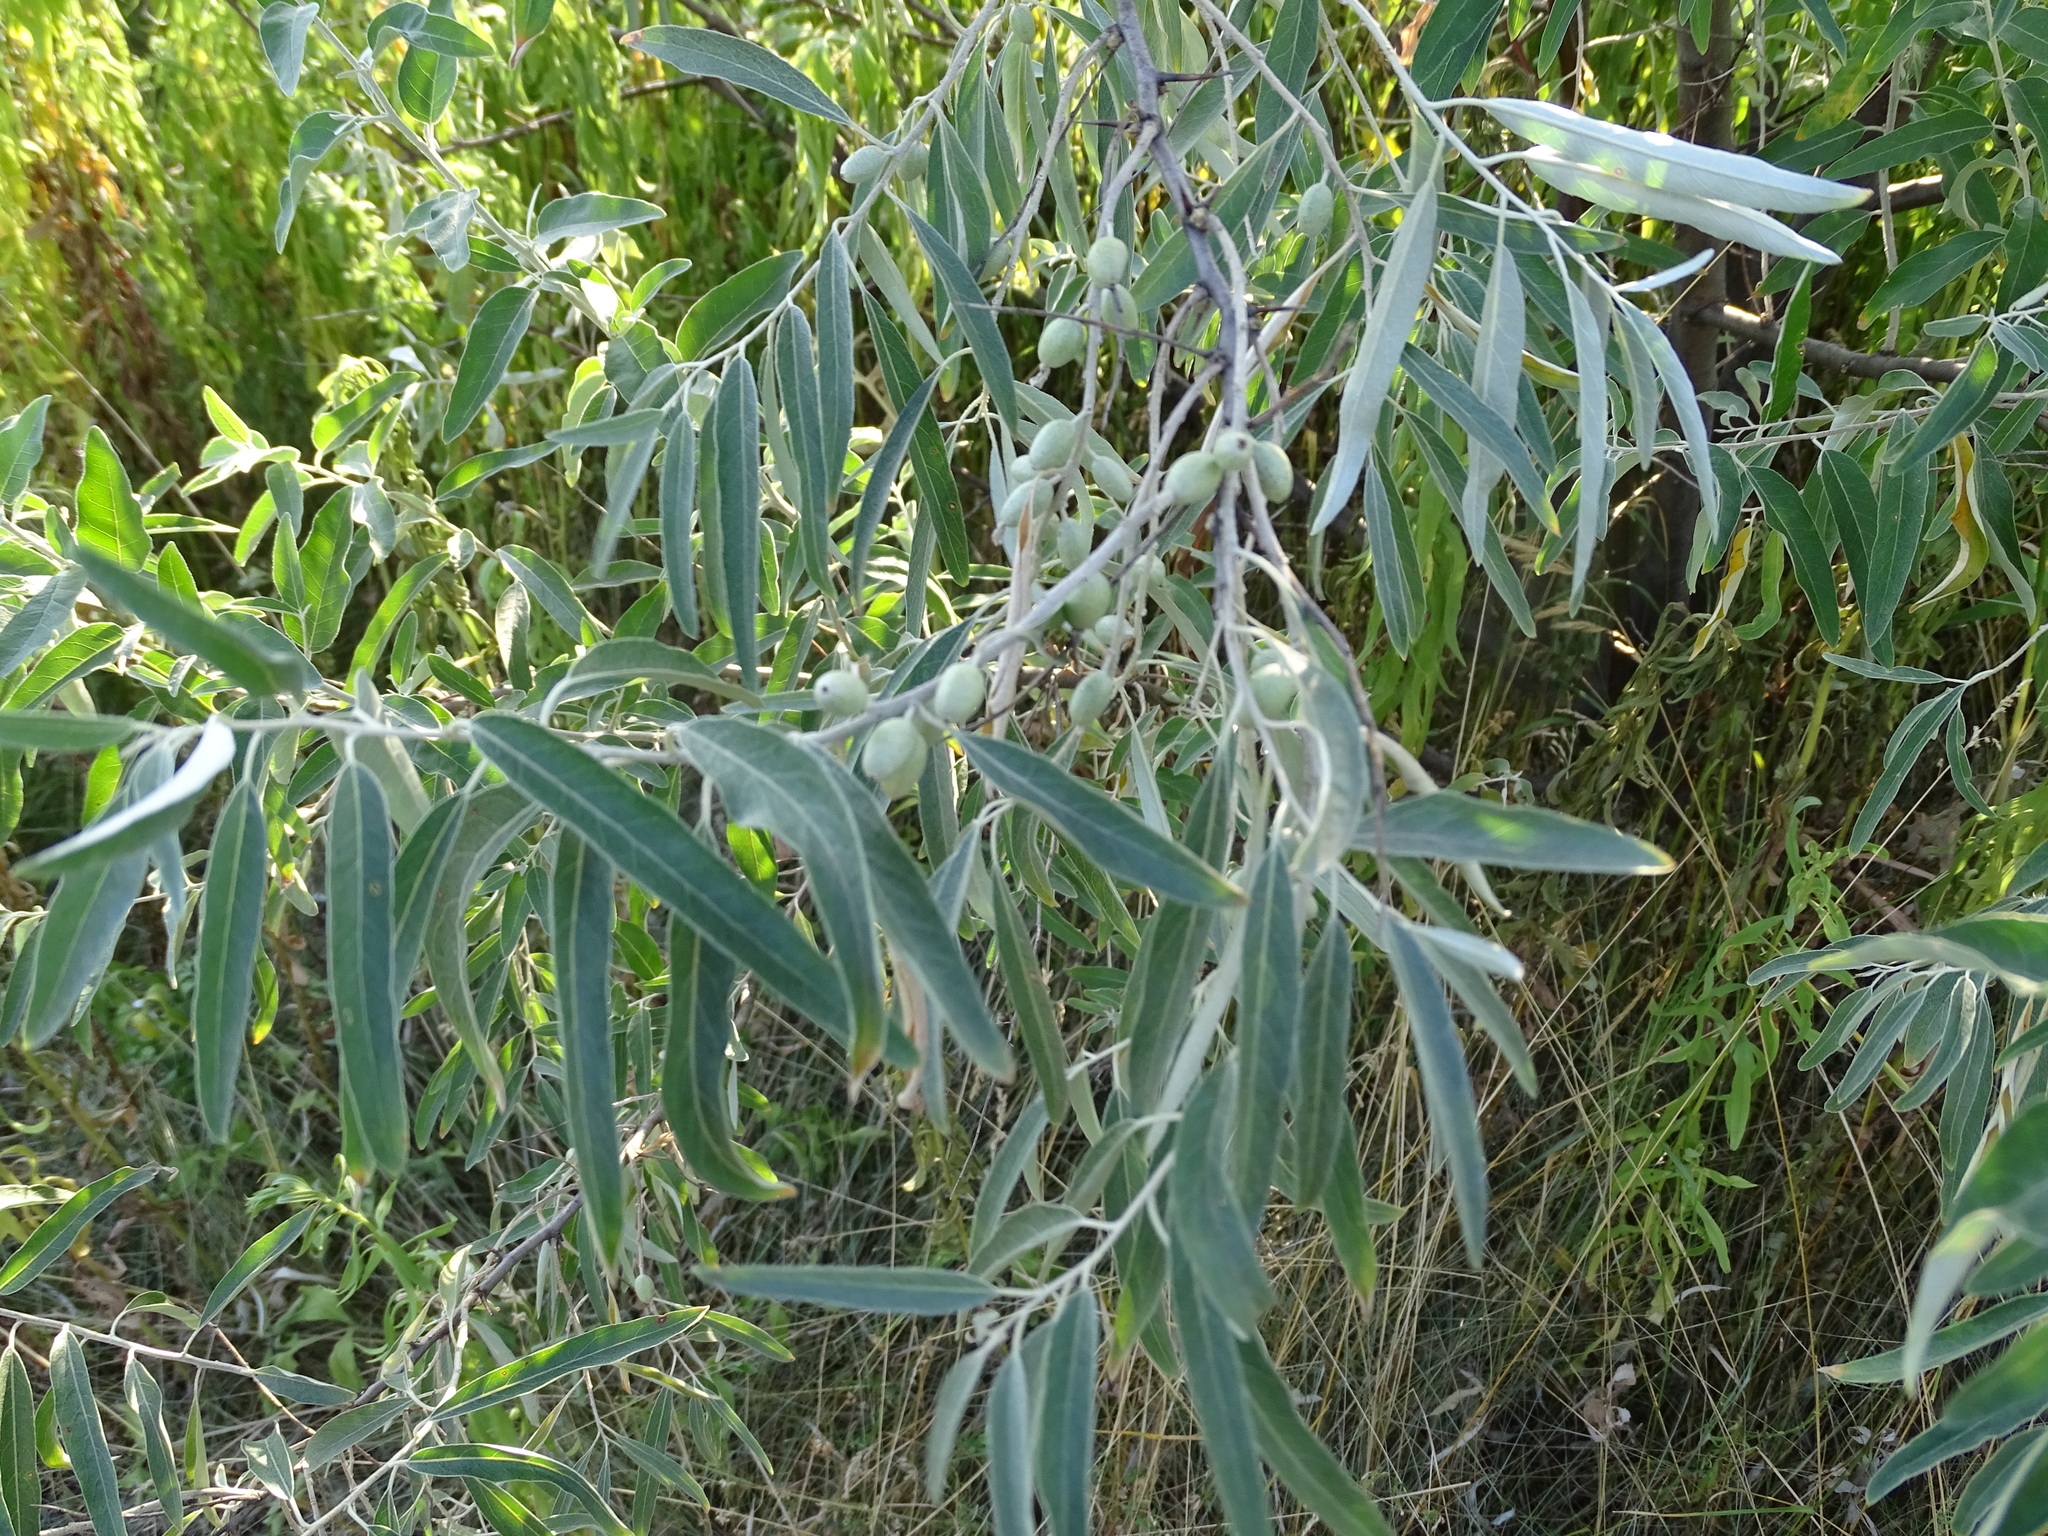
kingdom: Plantae
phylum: Tracheophyta
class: Magnoliopsida
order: Rosales
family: Elaeagnaceae
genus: Elaeagnus
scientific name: Elaeagnus angustifolia
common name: Russian olive
